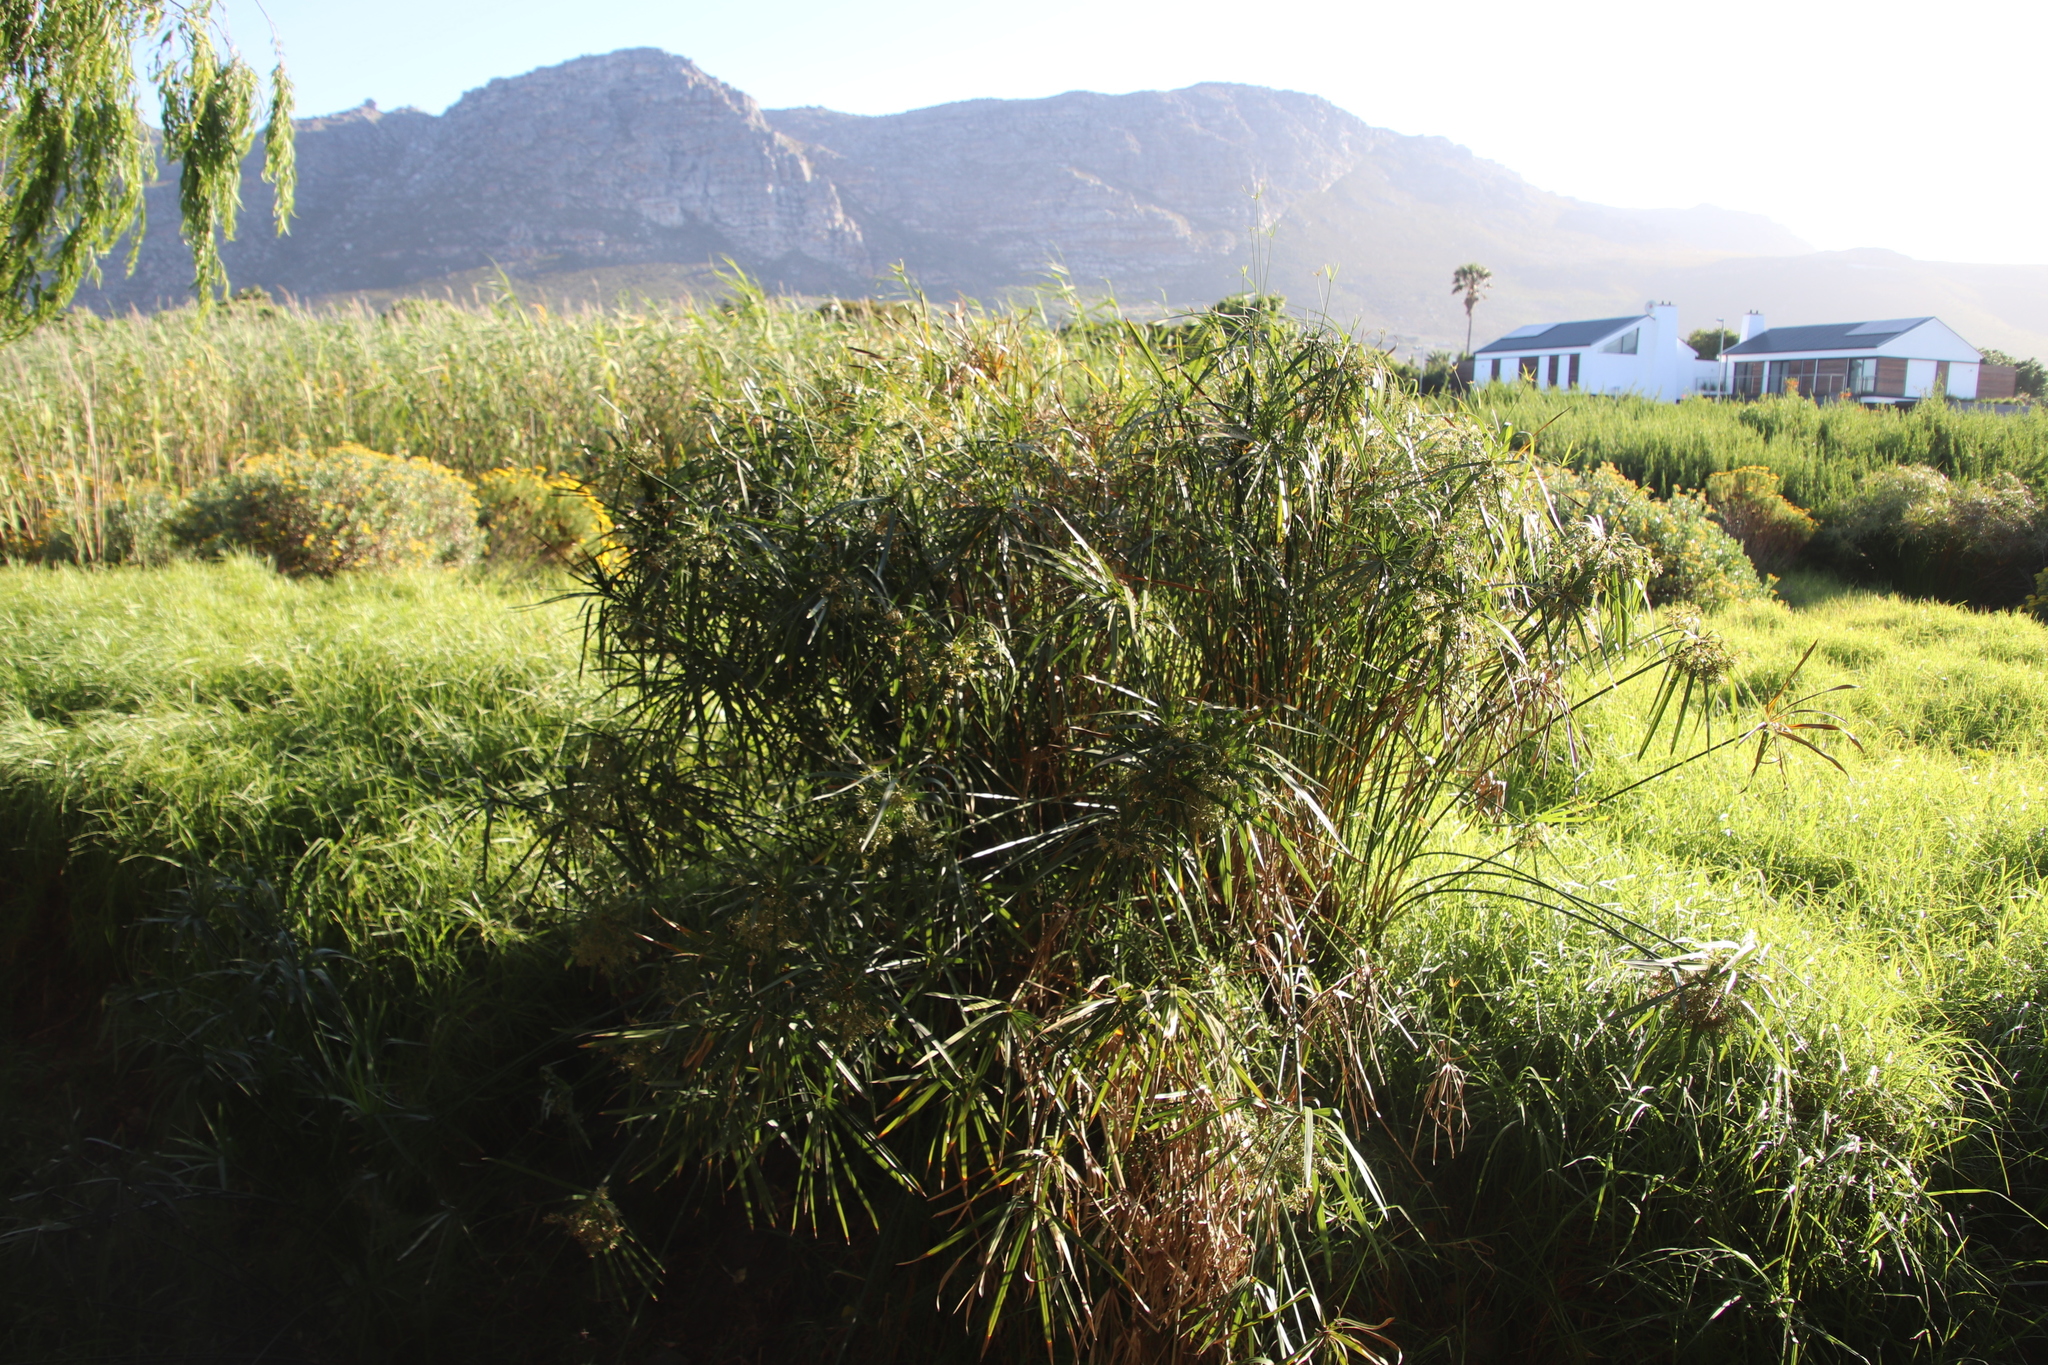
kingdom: Plantae
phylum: Tracheophyta
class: Liliopsida
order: Poales
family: Cyperaceae
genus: Cyperus
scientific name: Cyperus textilis
